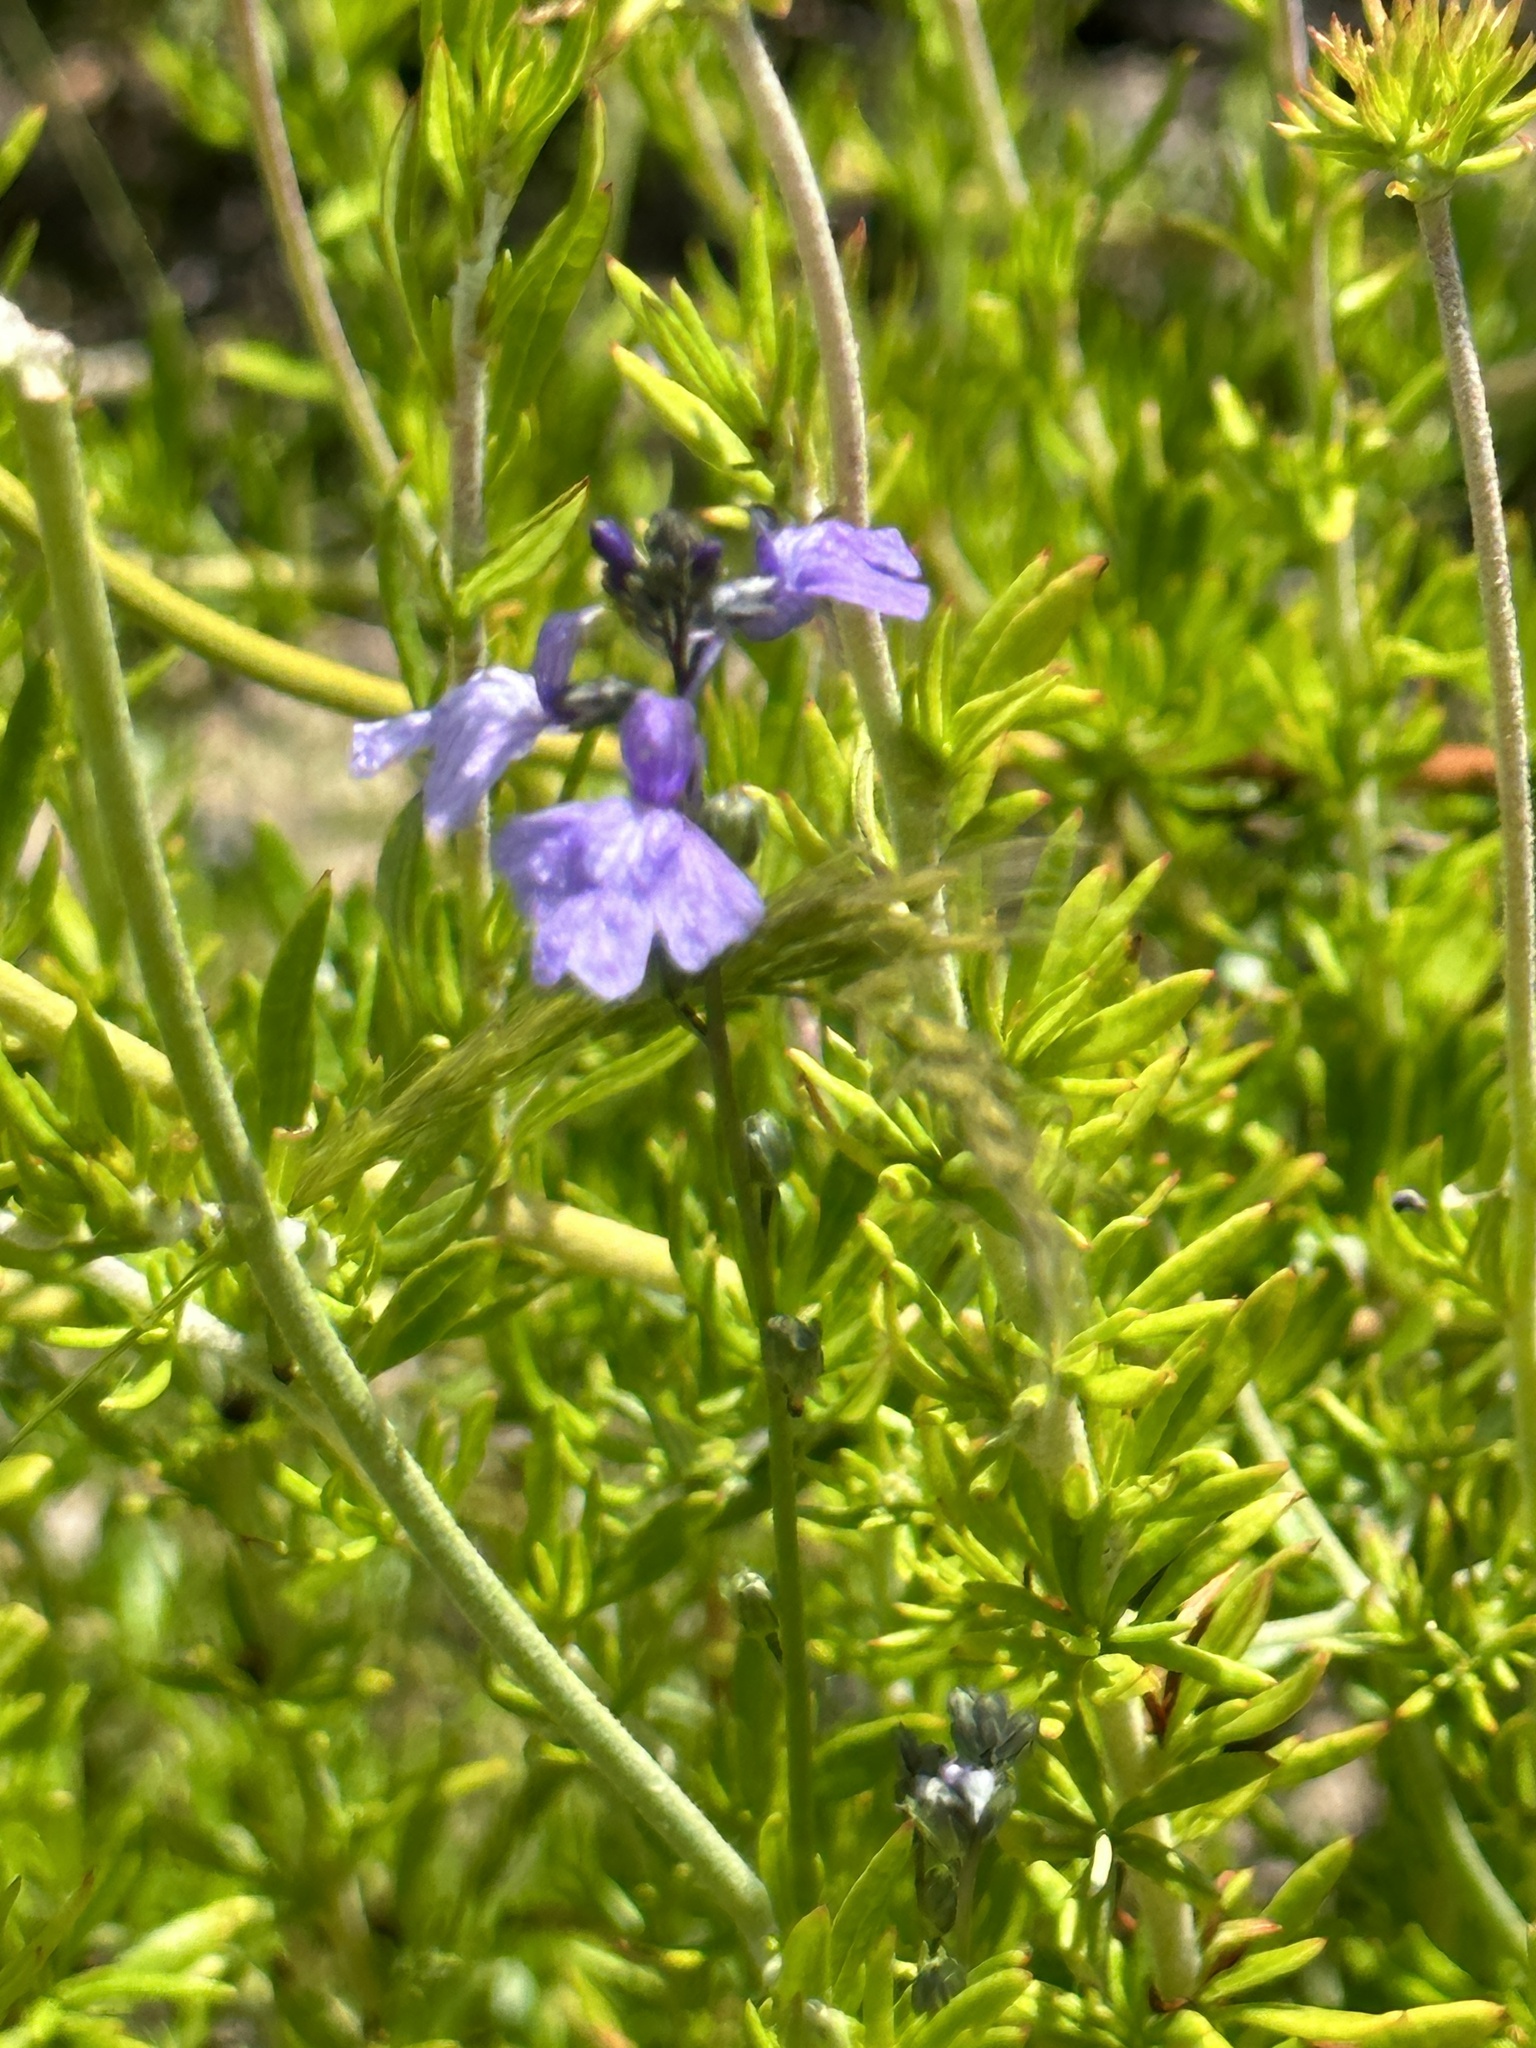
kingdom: Plantae
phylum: Tracheophyta
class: Magnoliopsida
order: Lamiales
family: Plantaginaceae
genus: Nuttallanthus
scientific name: Nuttallanthus texanus
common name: Texas toadflax
